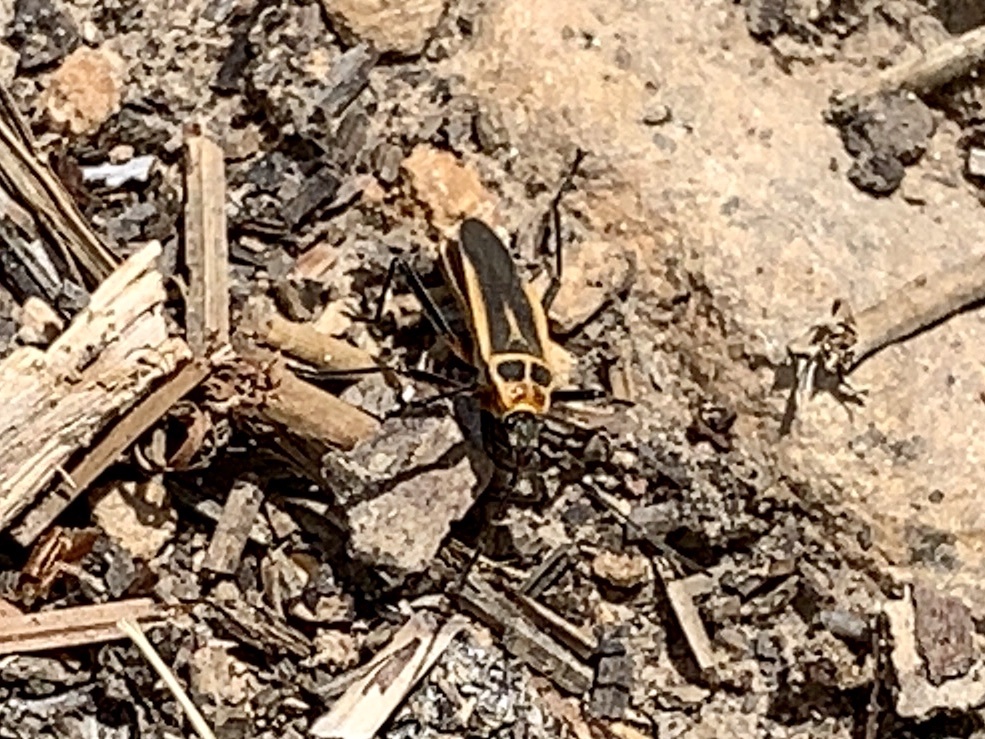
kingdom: Animalia
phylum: Arthropoda
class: Insecta
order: Hemiptera
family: Largidae
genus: Stenomacra
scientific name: Stenomacra marginella
